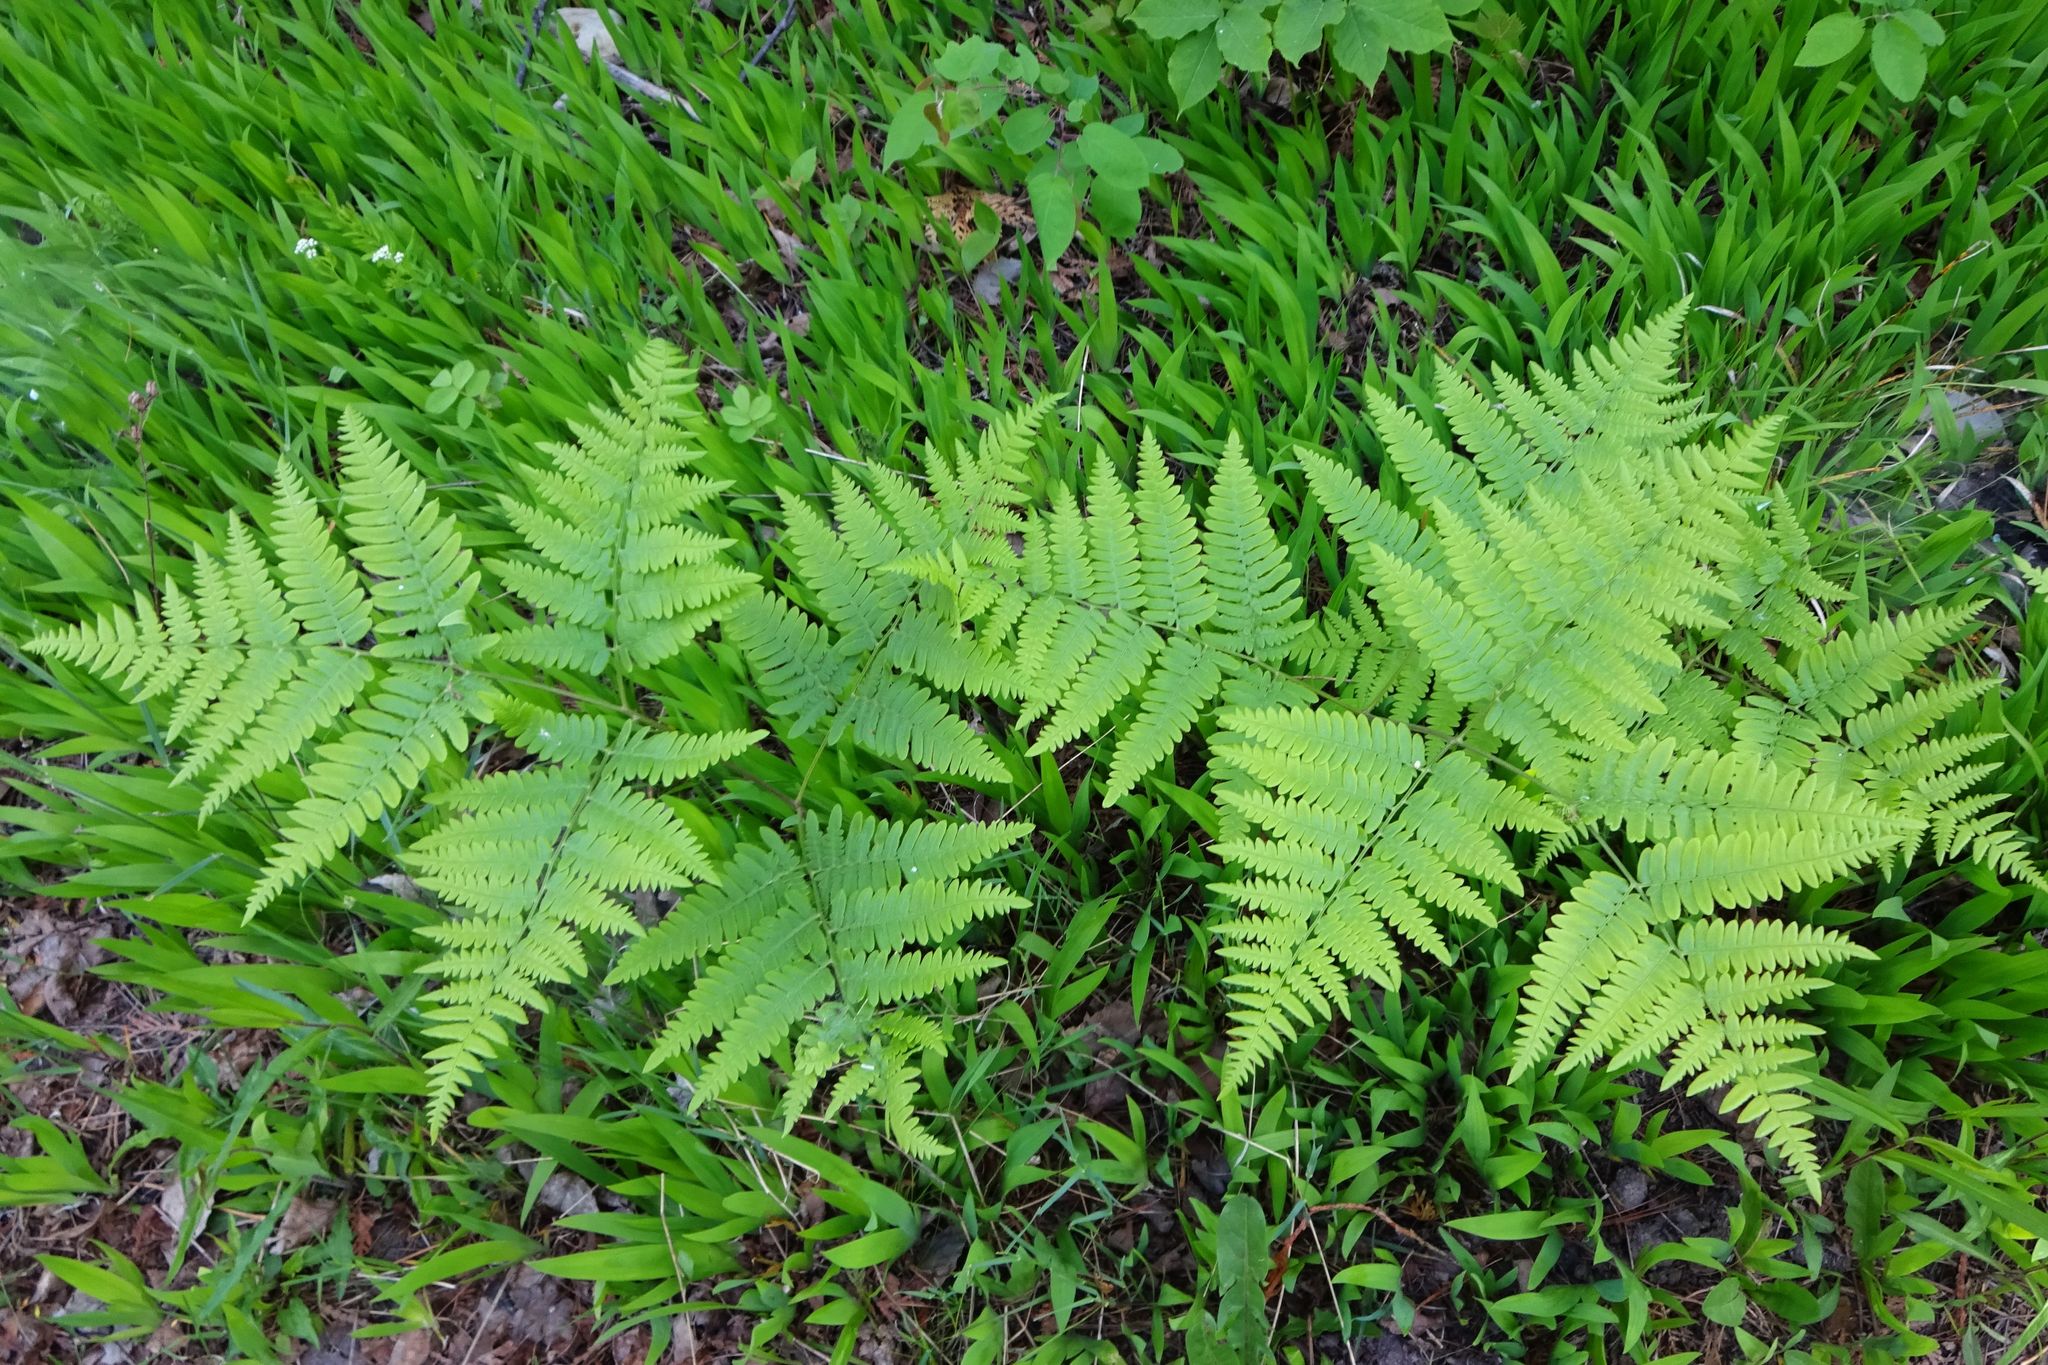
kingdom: Plantae
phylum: Tracheophyta
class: Polypodiopsida
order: Polypodiales
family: Dennstaedtiaceae
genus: Pteridium
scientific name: Pteridium aquilinum
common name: Bracken
